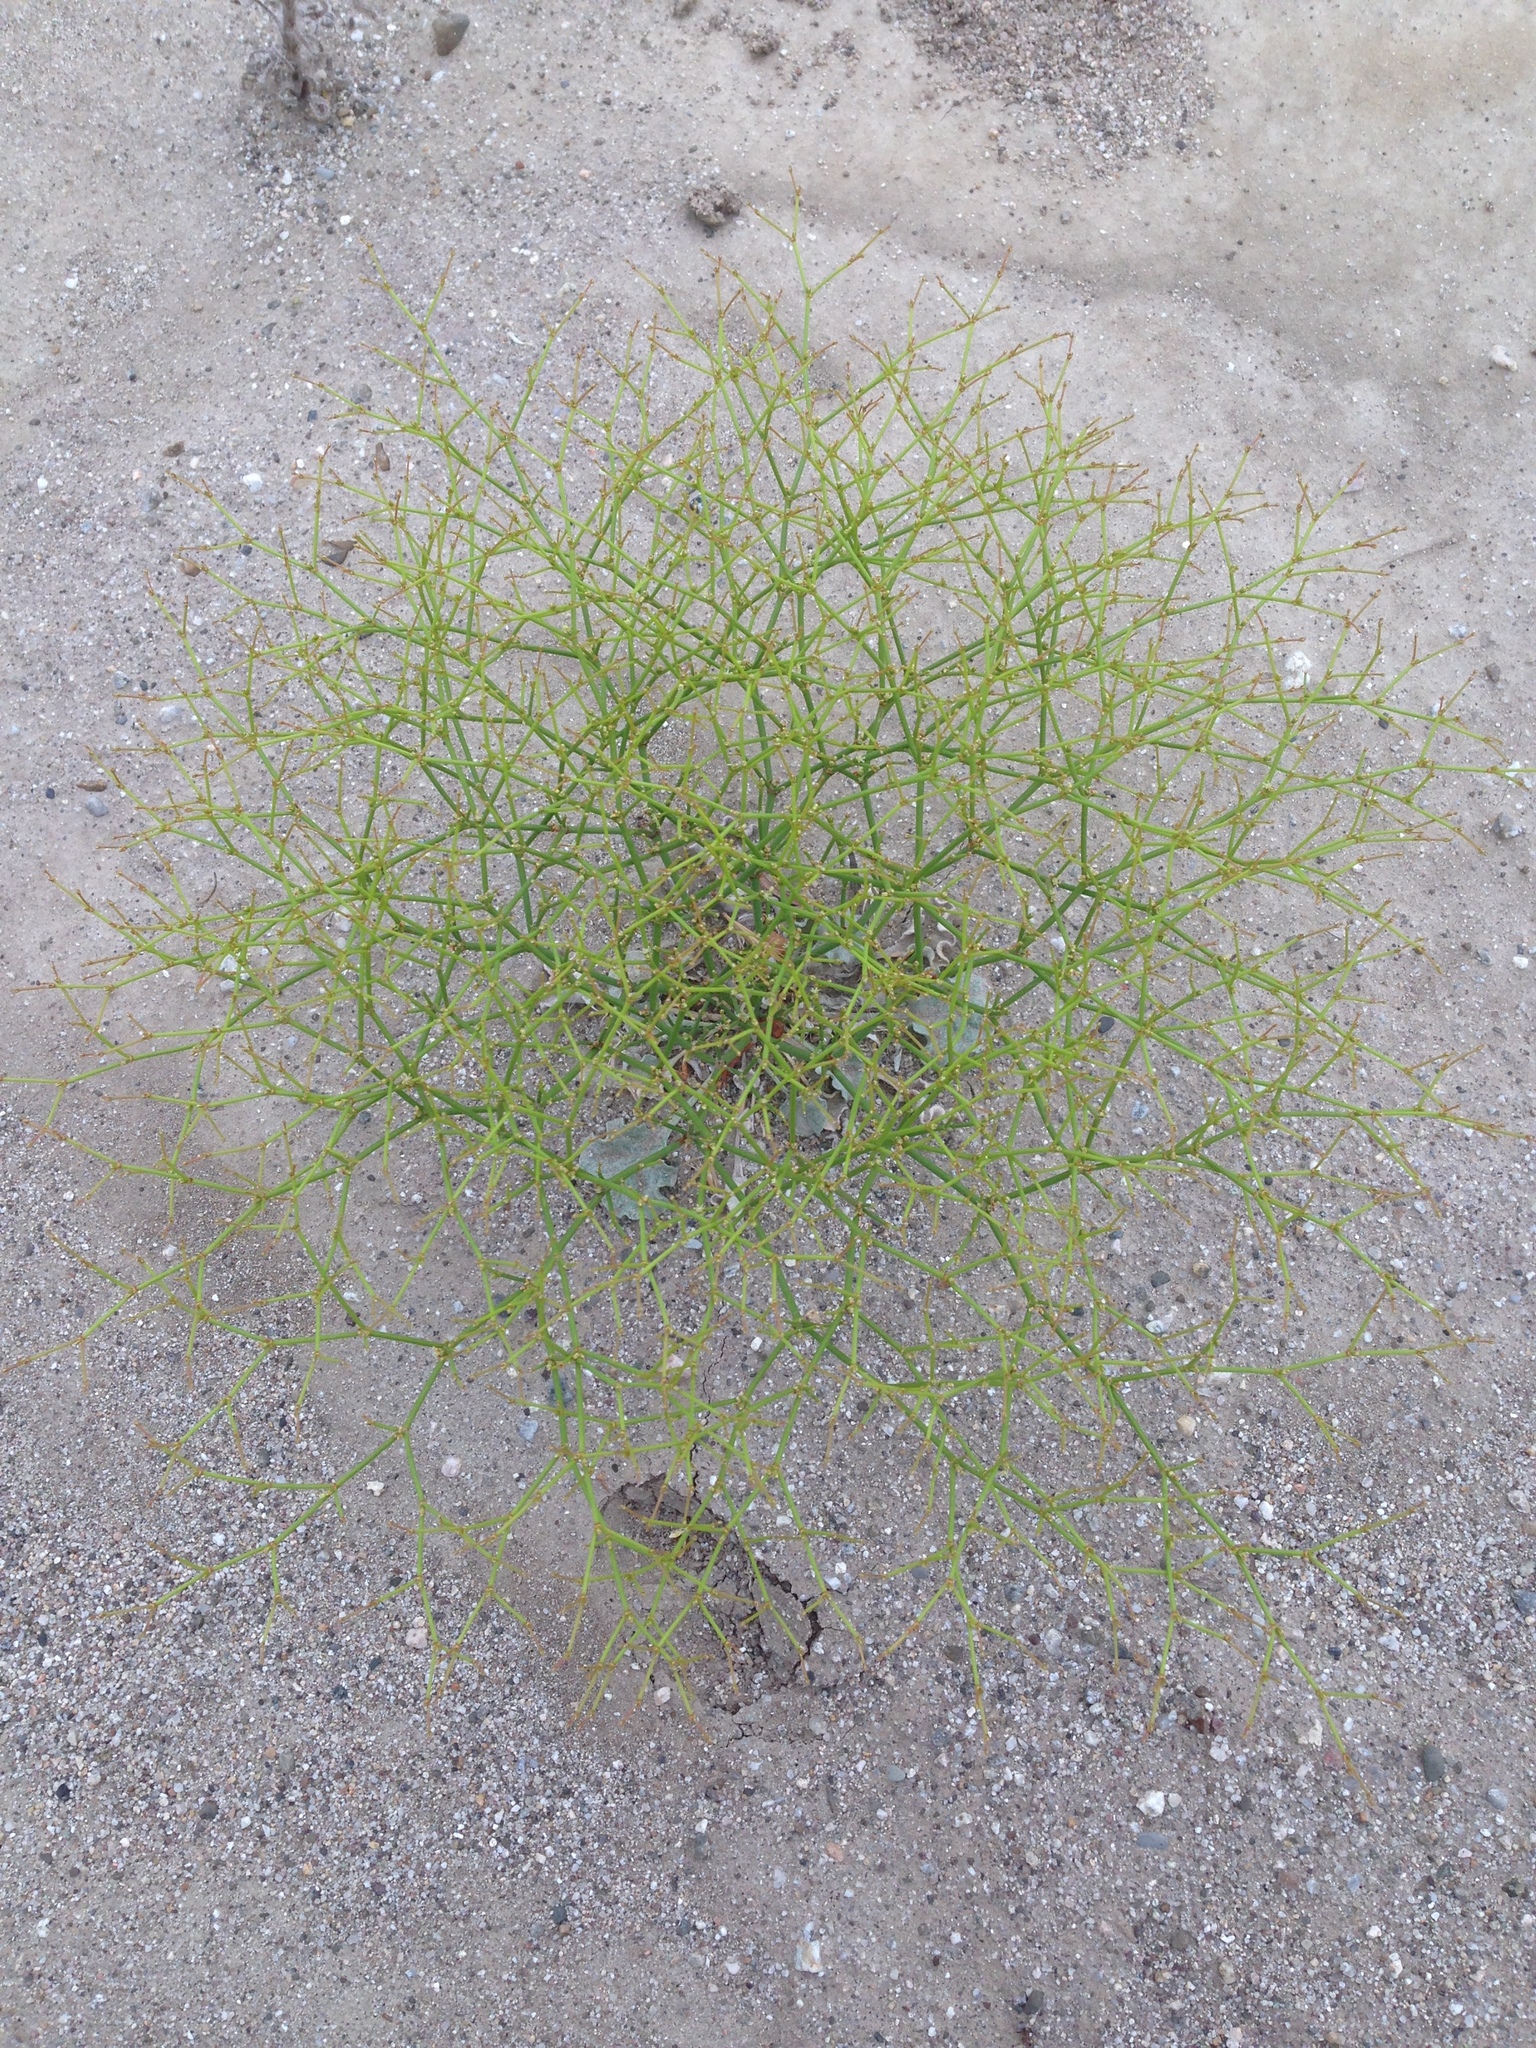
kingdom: Plantae
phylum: Tracheophyta
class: Magnoliopsida
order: Caryophyllales
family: Polygonaceae
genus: Eriogonum
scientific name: Eriogonum brachyanthum
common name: Short-flower wild buckwheat
